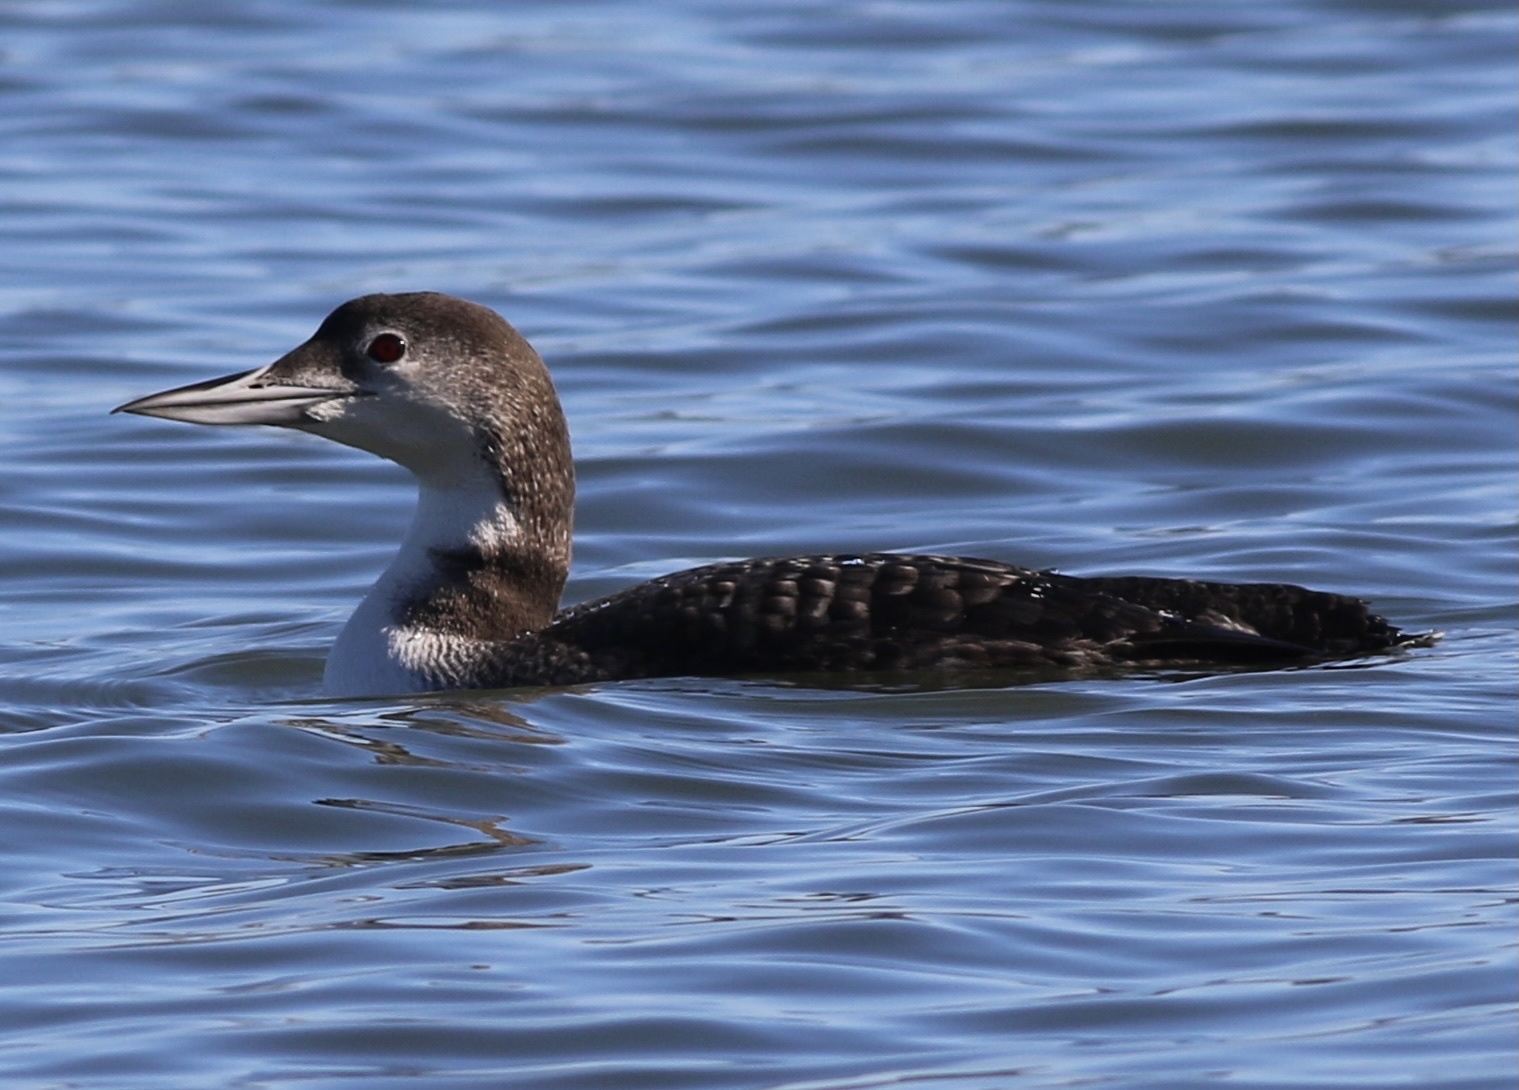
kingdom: Animalia
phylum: Chordata
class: Aves
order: Gaviiformes
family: Gaviidae
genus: Gavia
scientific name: Gavia immer
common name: Common loon
